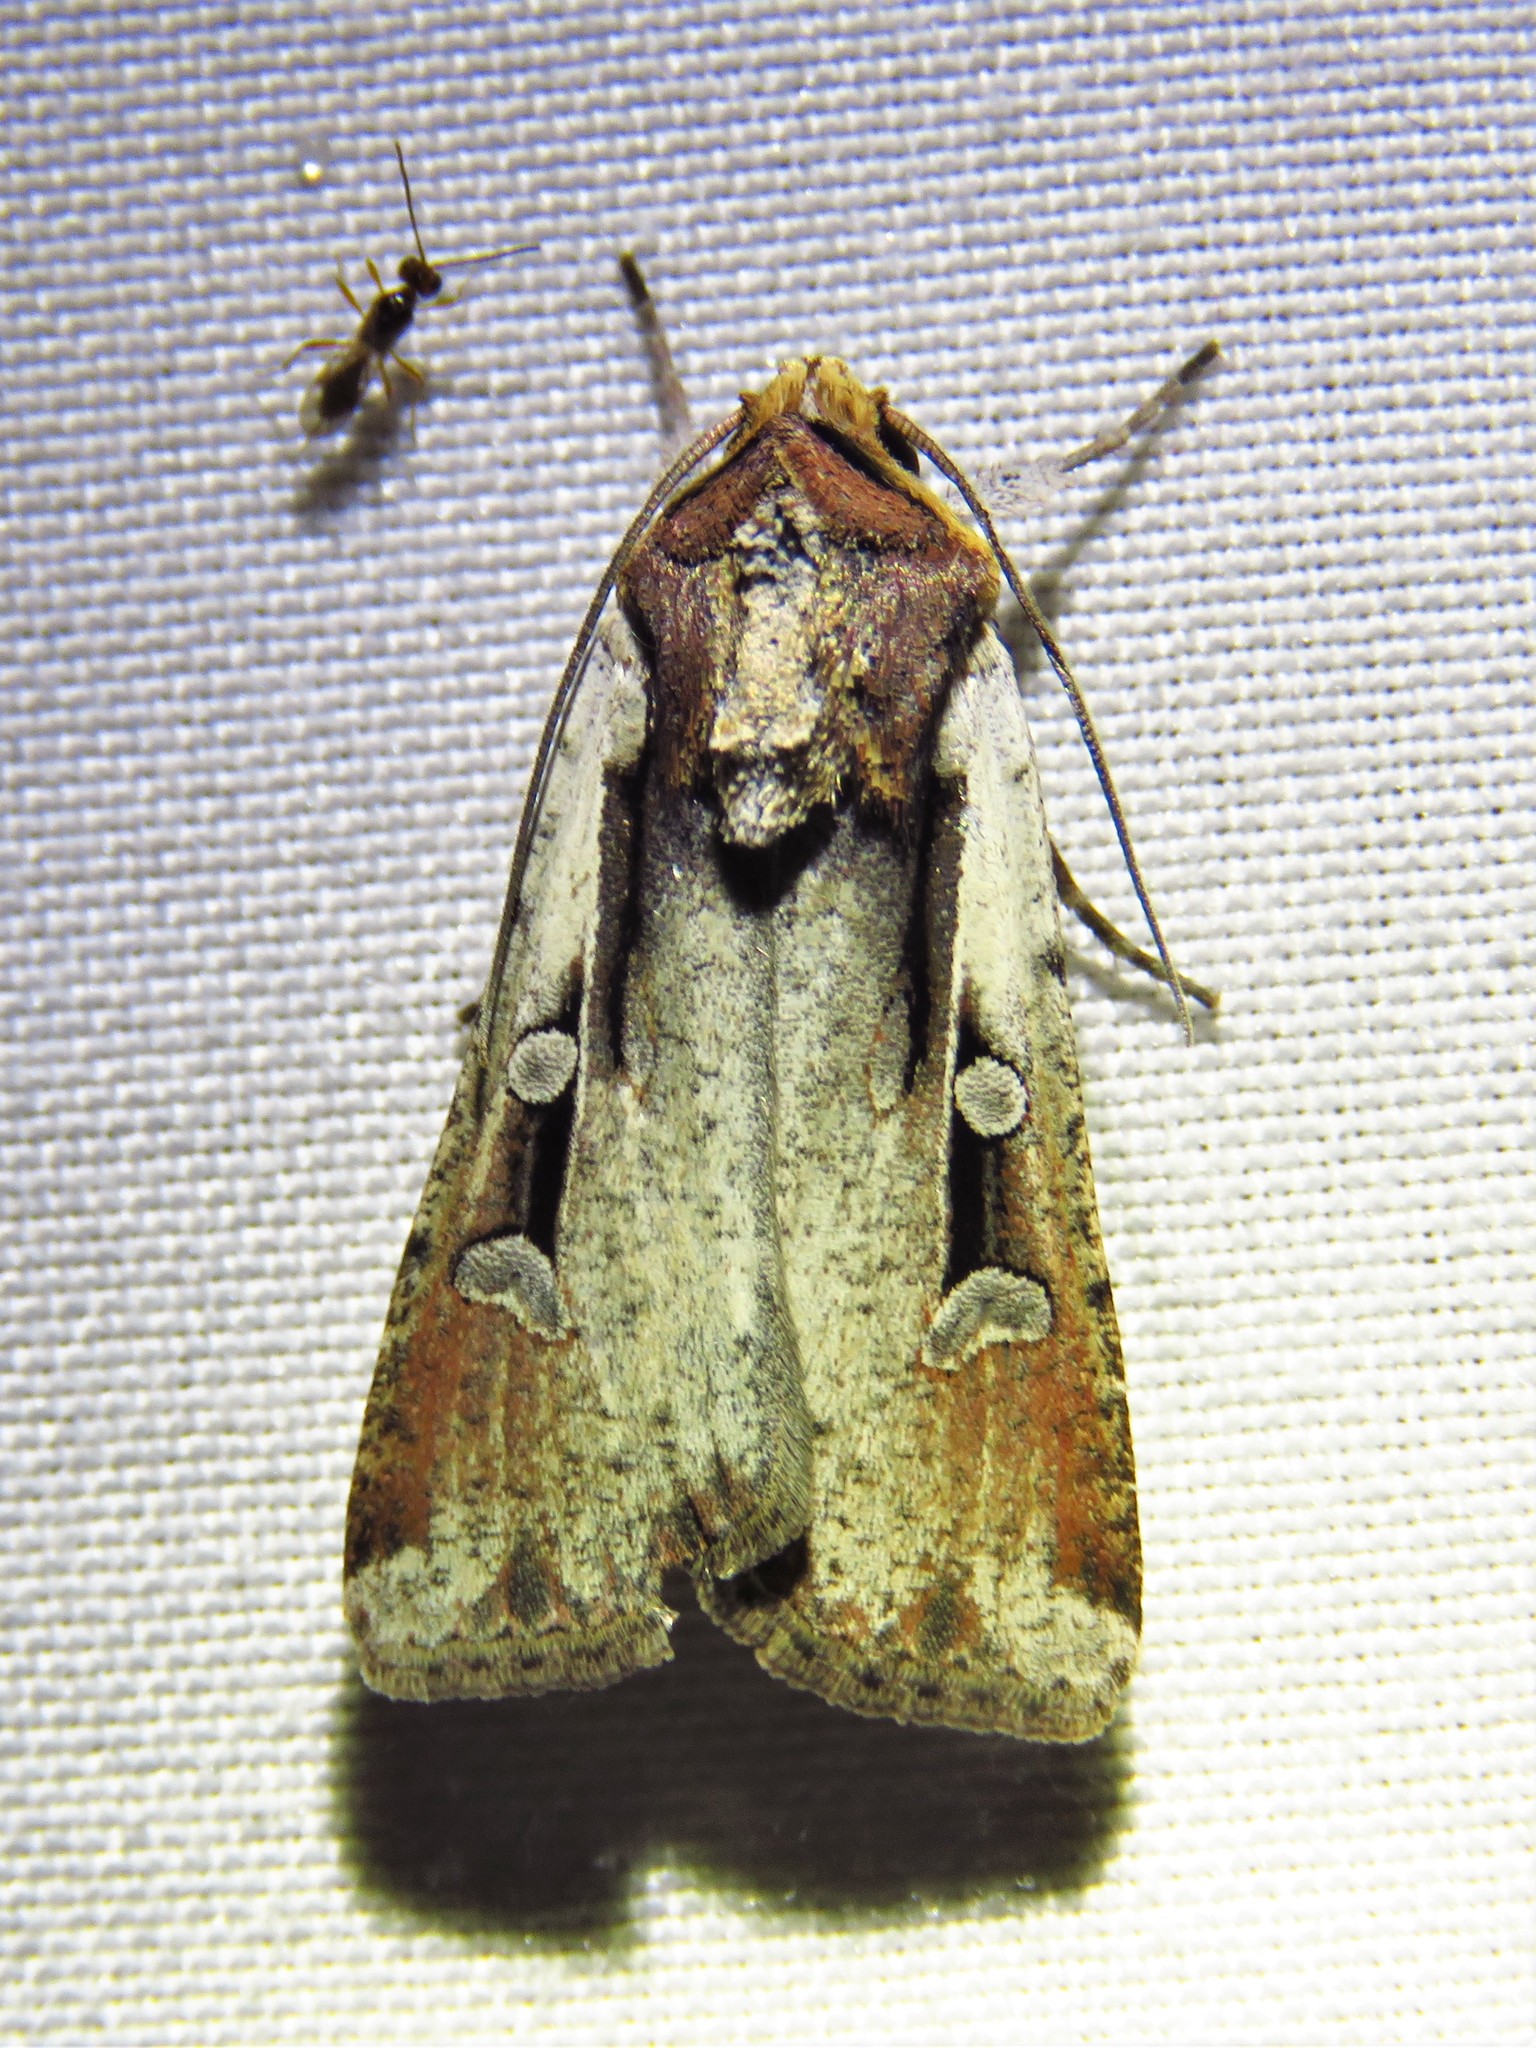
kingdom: Animalia
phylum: Arthropoda
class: Insecta
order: Lepidoptera
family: Noctuidae
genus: Hemieuxoa
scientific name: Hemieuxoa rudens
